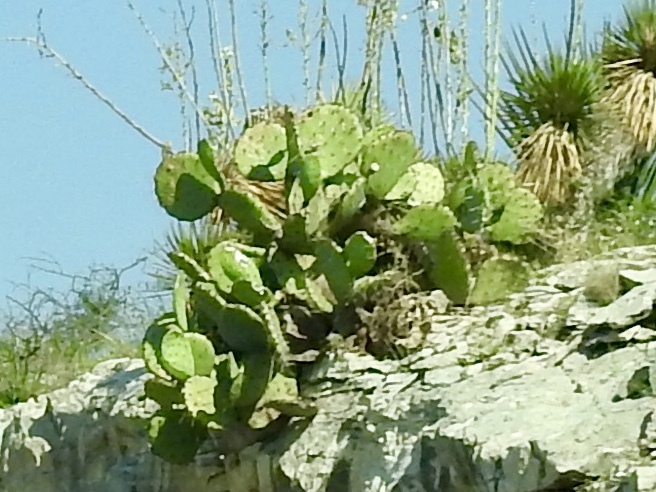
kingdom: Plantae
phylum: Tracheophyta
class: Magnoliopsida
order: Caryophyllales
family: Cactaceae
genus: Opuntia
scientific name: Opuntia engelmannii
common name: Cactus-apple
